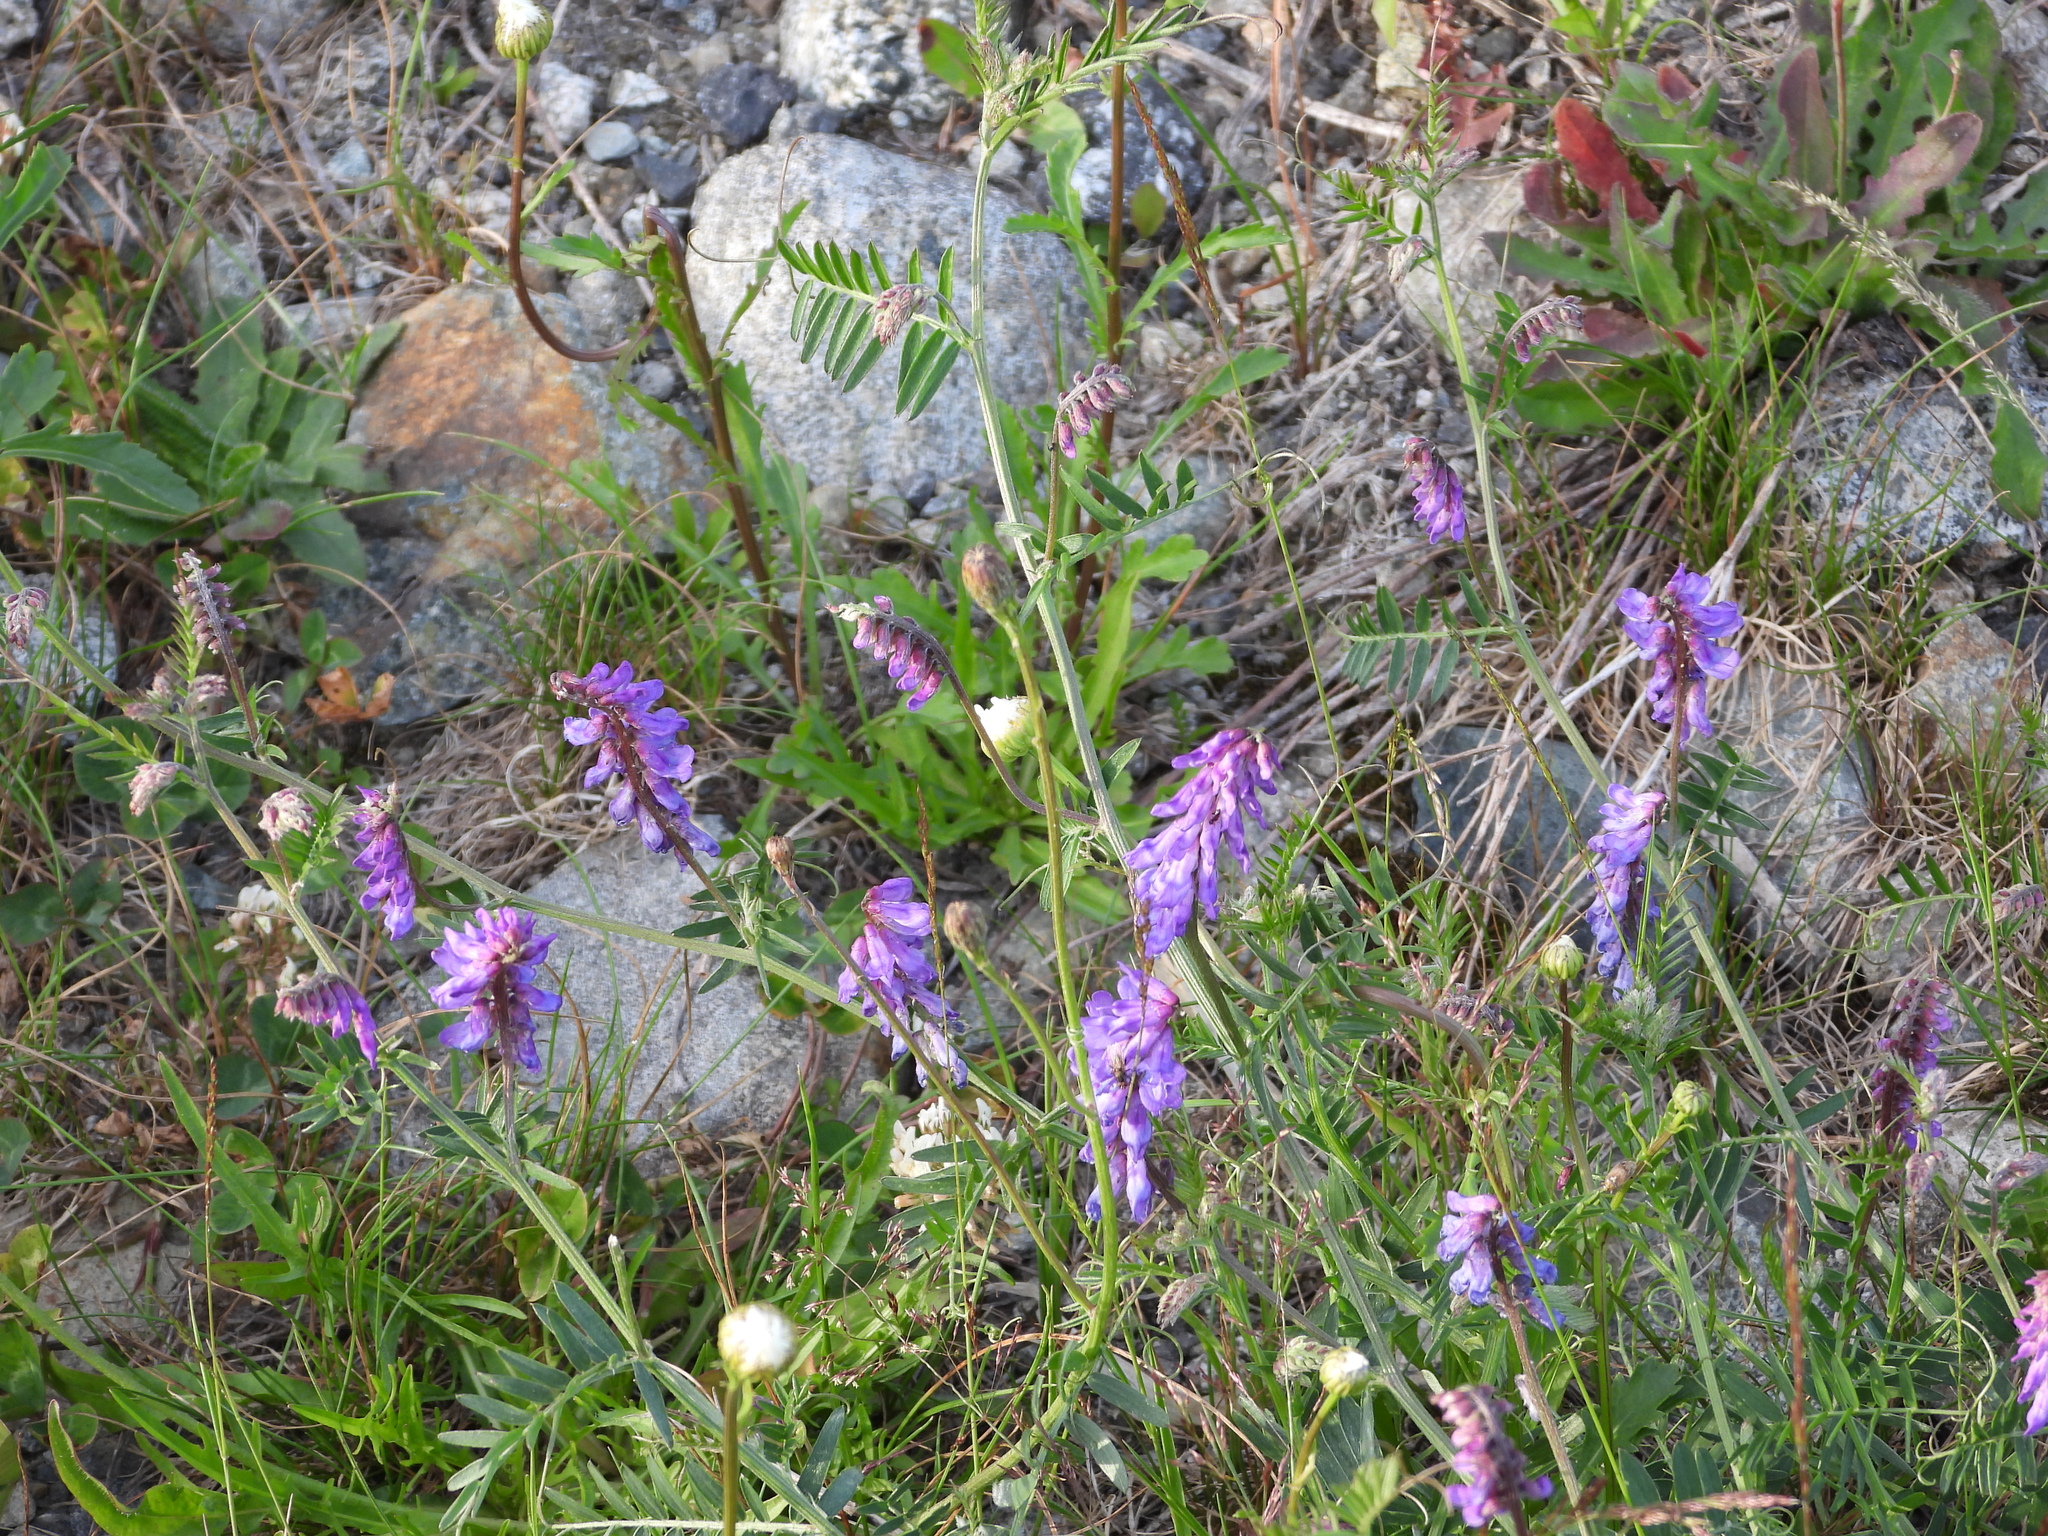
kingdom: Plantae
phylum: Tracheophyta
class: Magnoliopsida
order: Fabales
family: Fabaceae
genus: Vicia
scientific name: Vicia cracca
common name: Bird vetch
